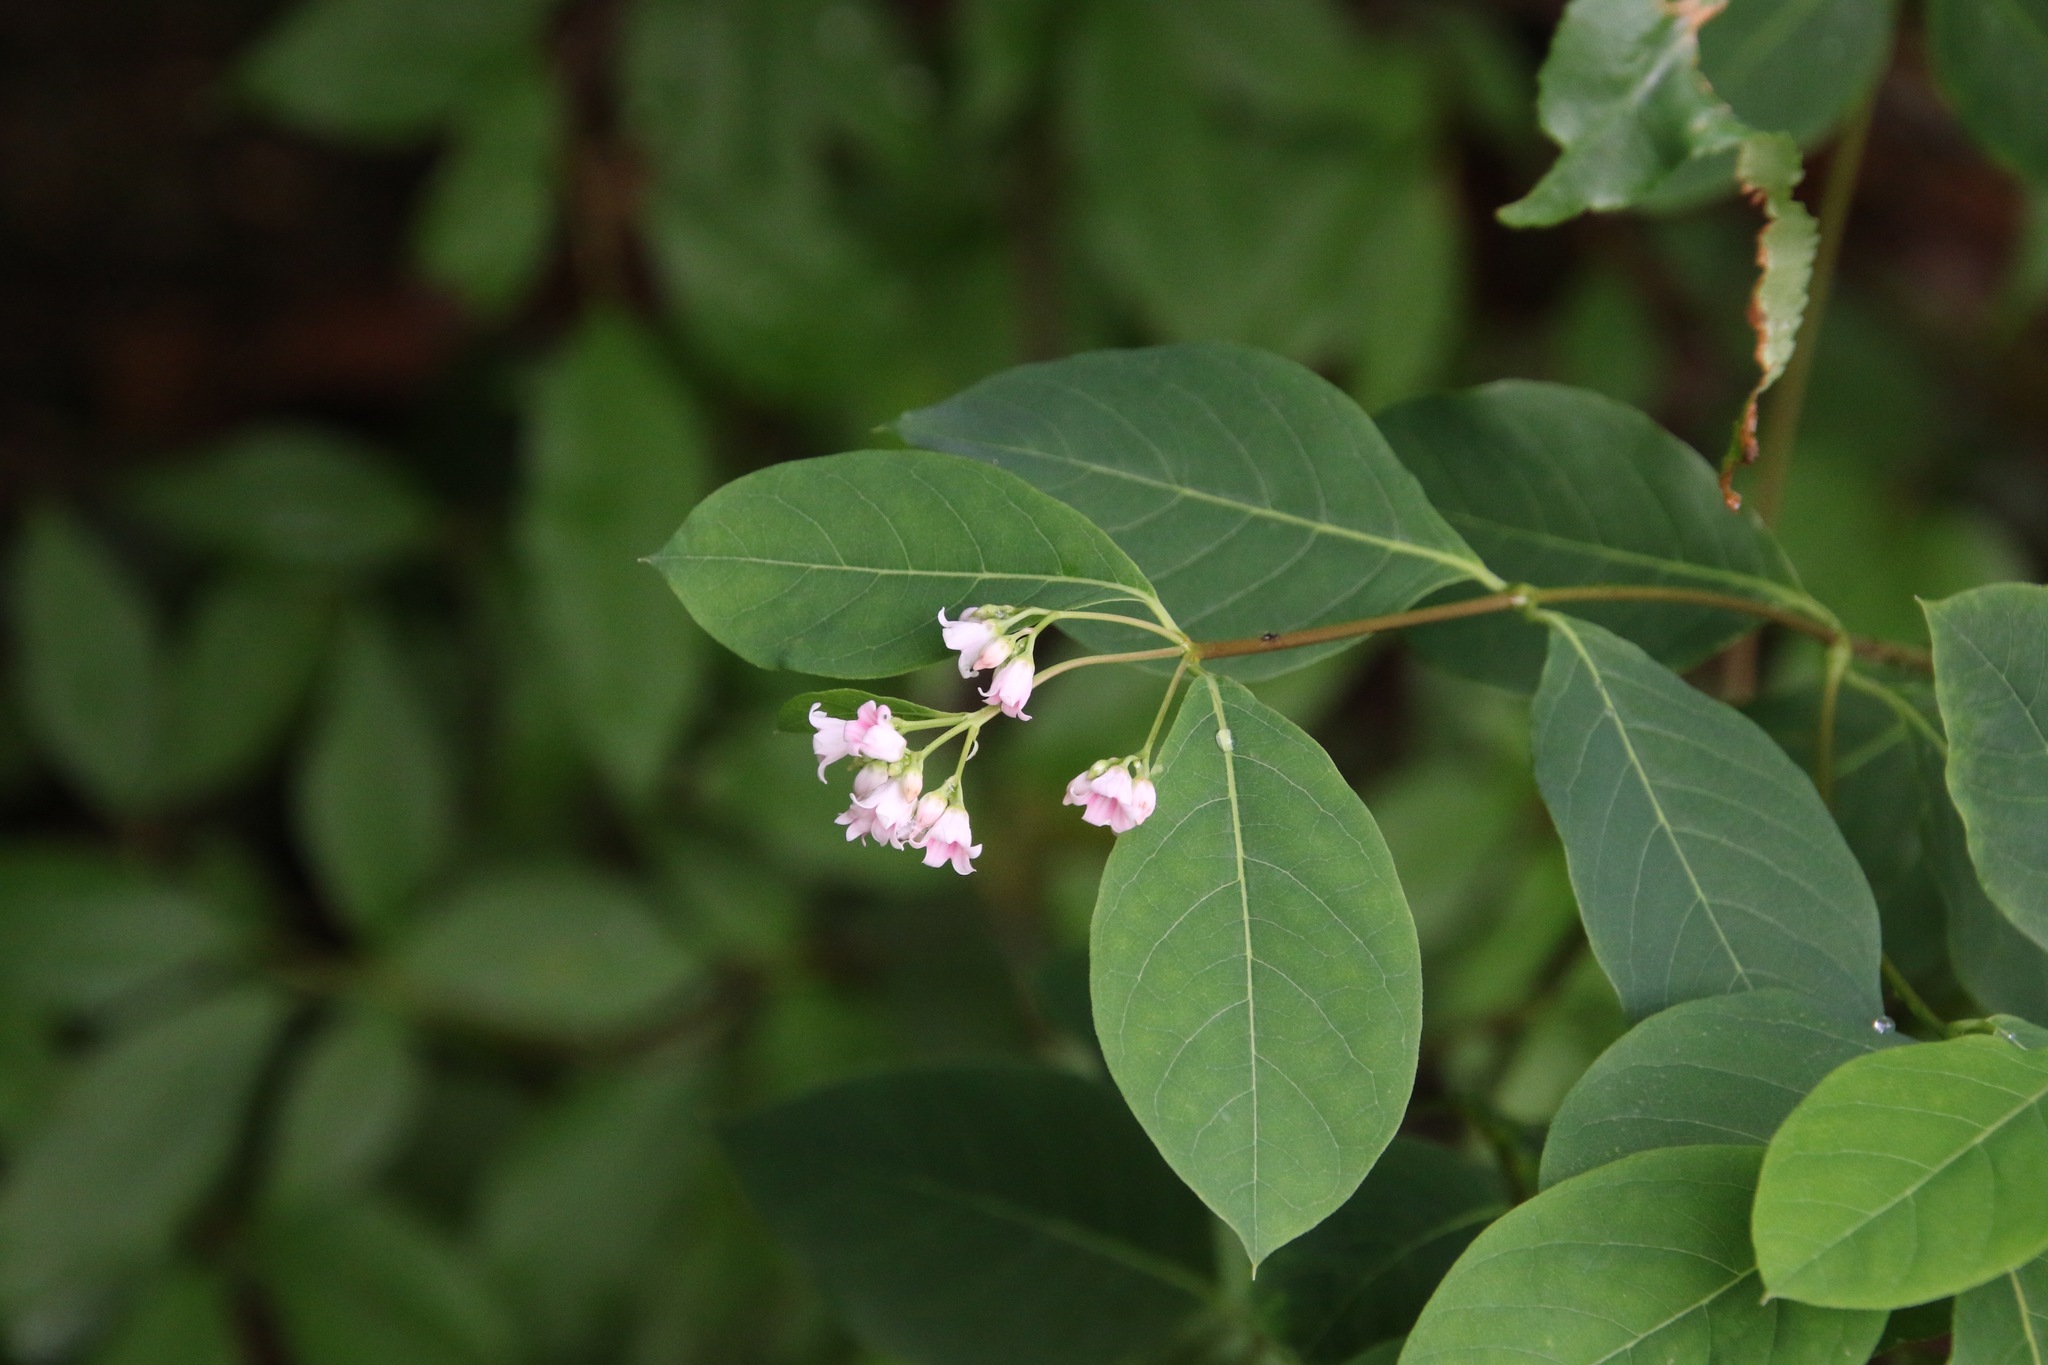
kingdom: Plantae
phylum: Tracheophyta
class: Magnoliopsida
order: Gentianales
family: Apocynaceae
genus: Apocynum
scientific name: Apocynum androsaemifolium
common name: Spreading dogbane
